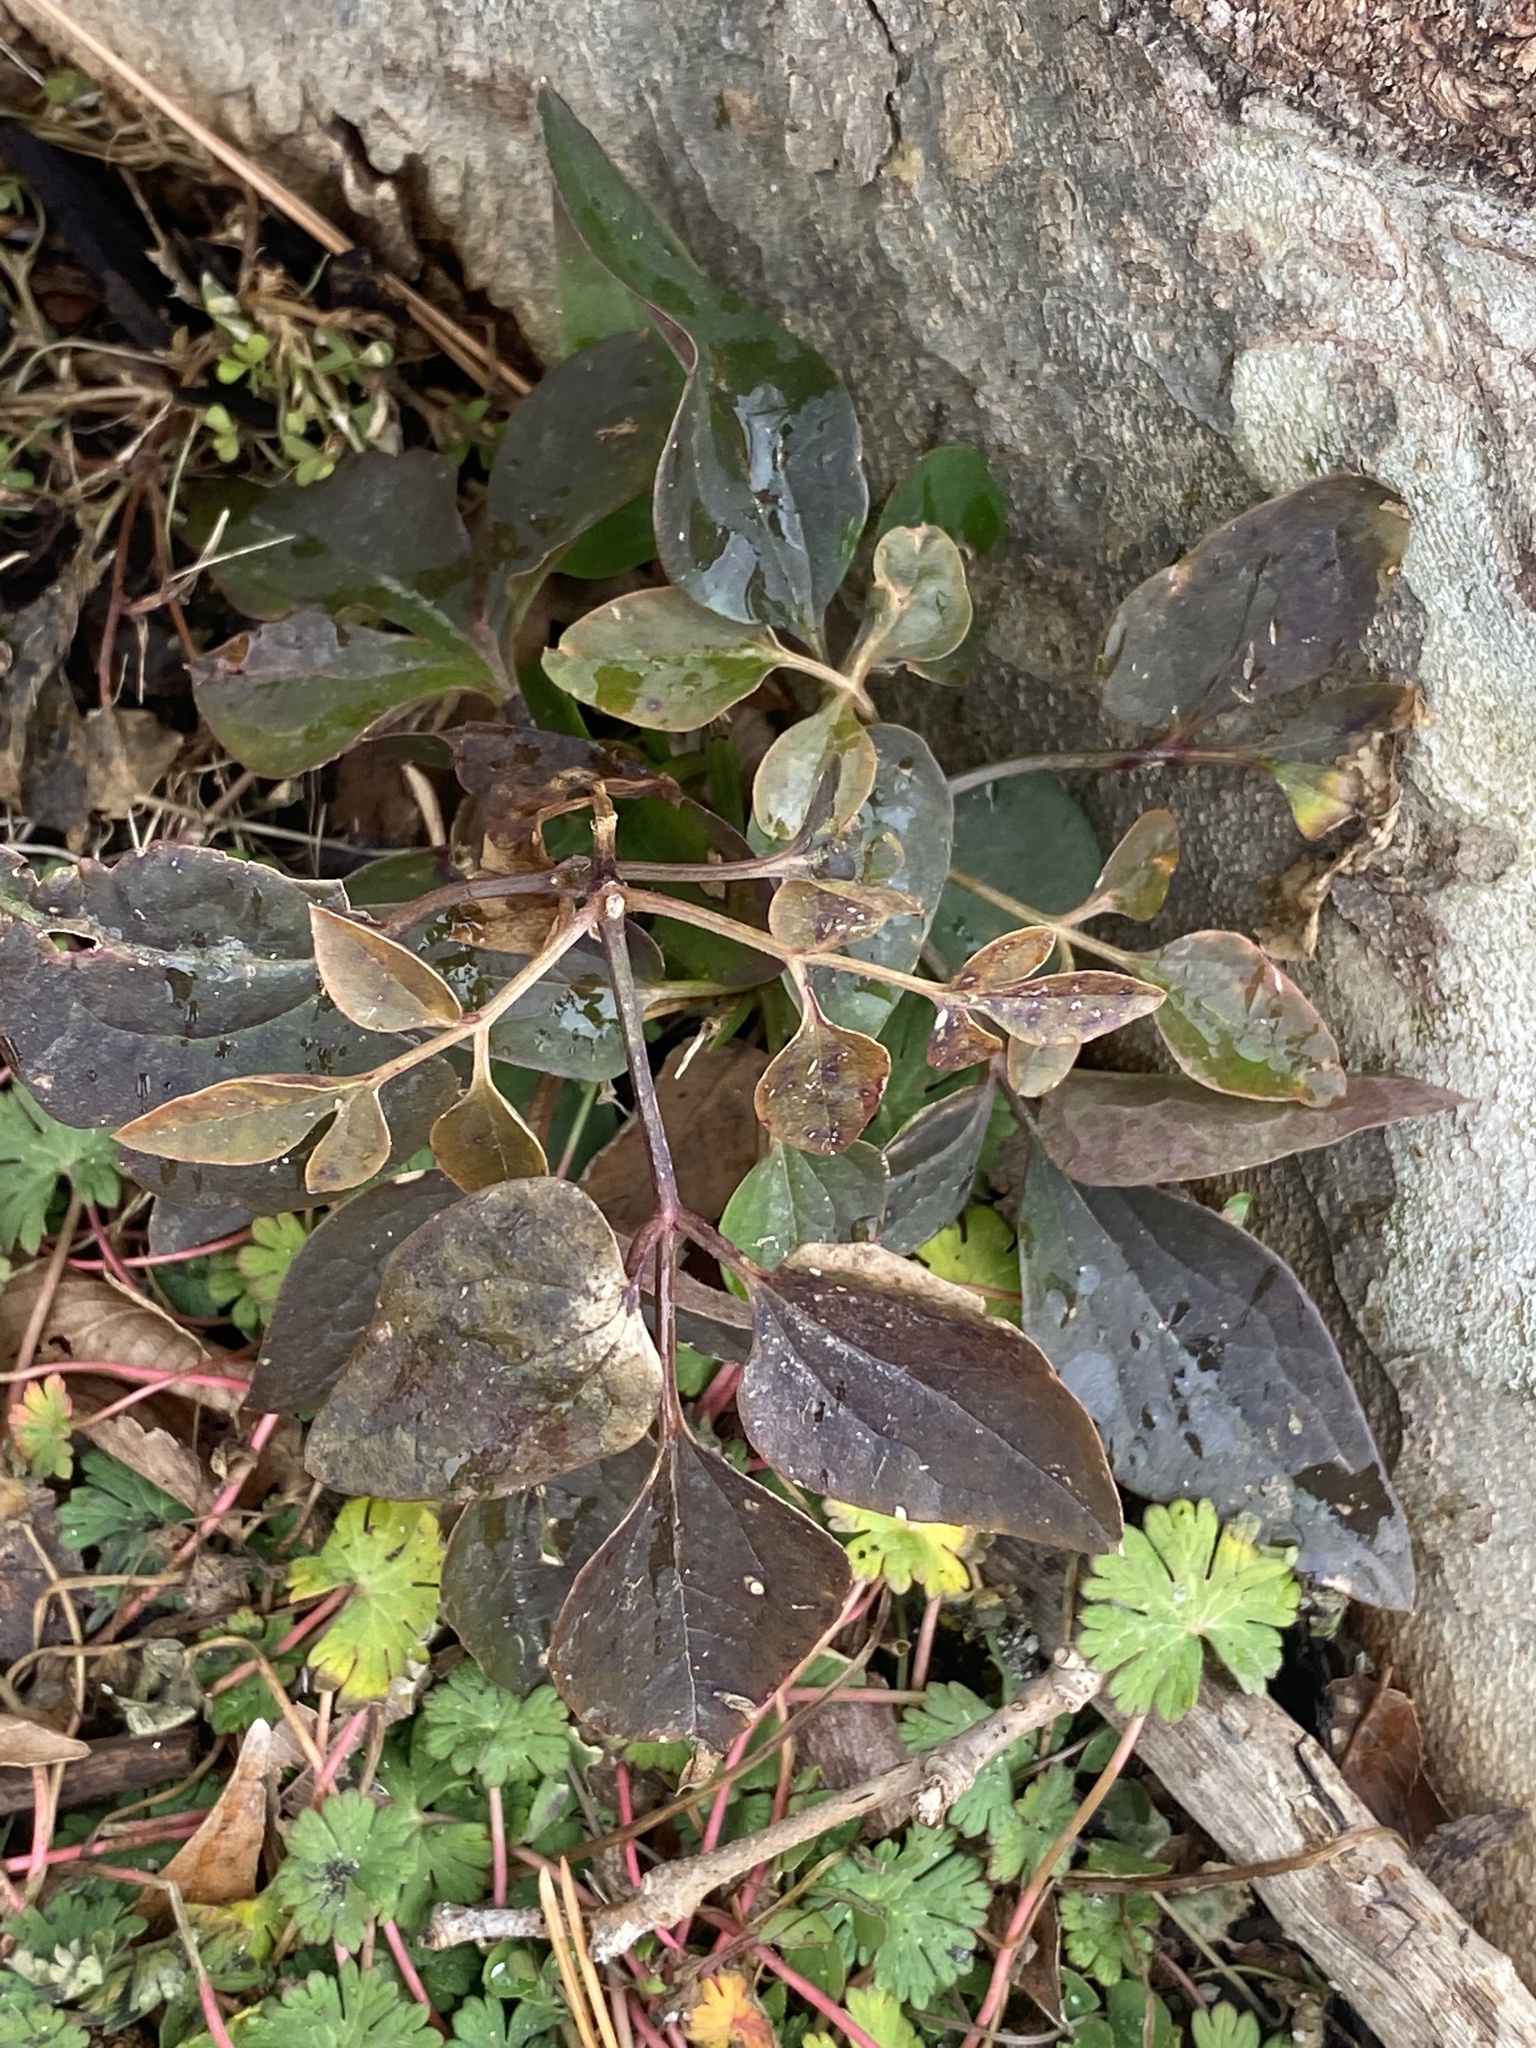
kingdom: Plantae
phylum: Tracheophyta
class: Magnoliopsida
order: Ranunculales
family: Ranunculaceae
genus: Clematis
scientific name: Clematis terniflora
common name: Sweet autumn clematis
